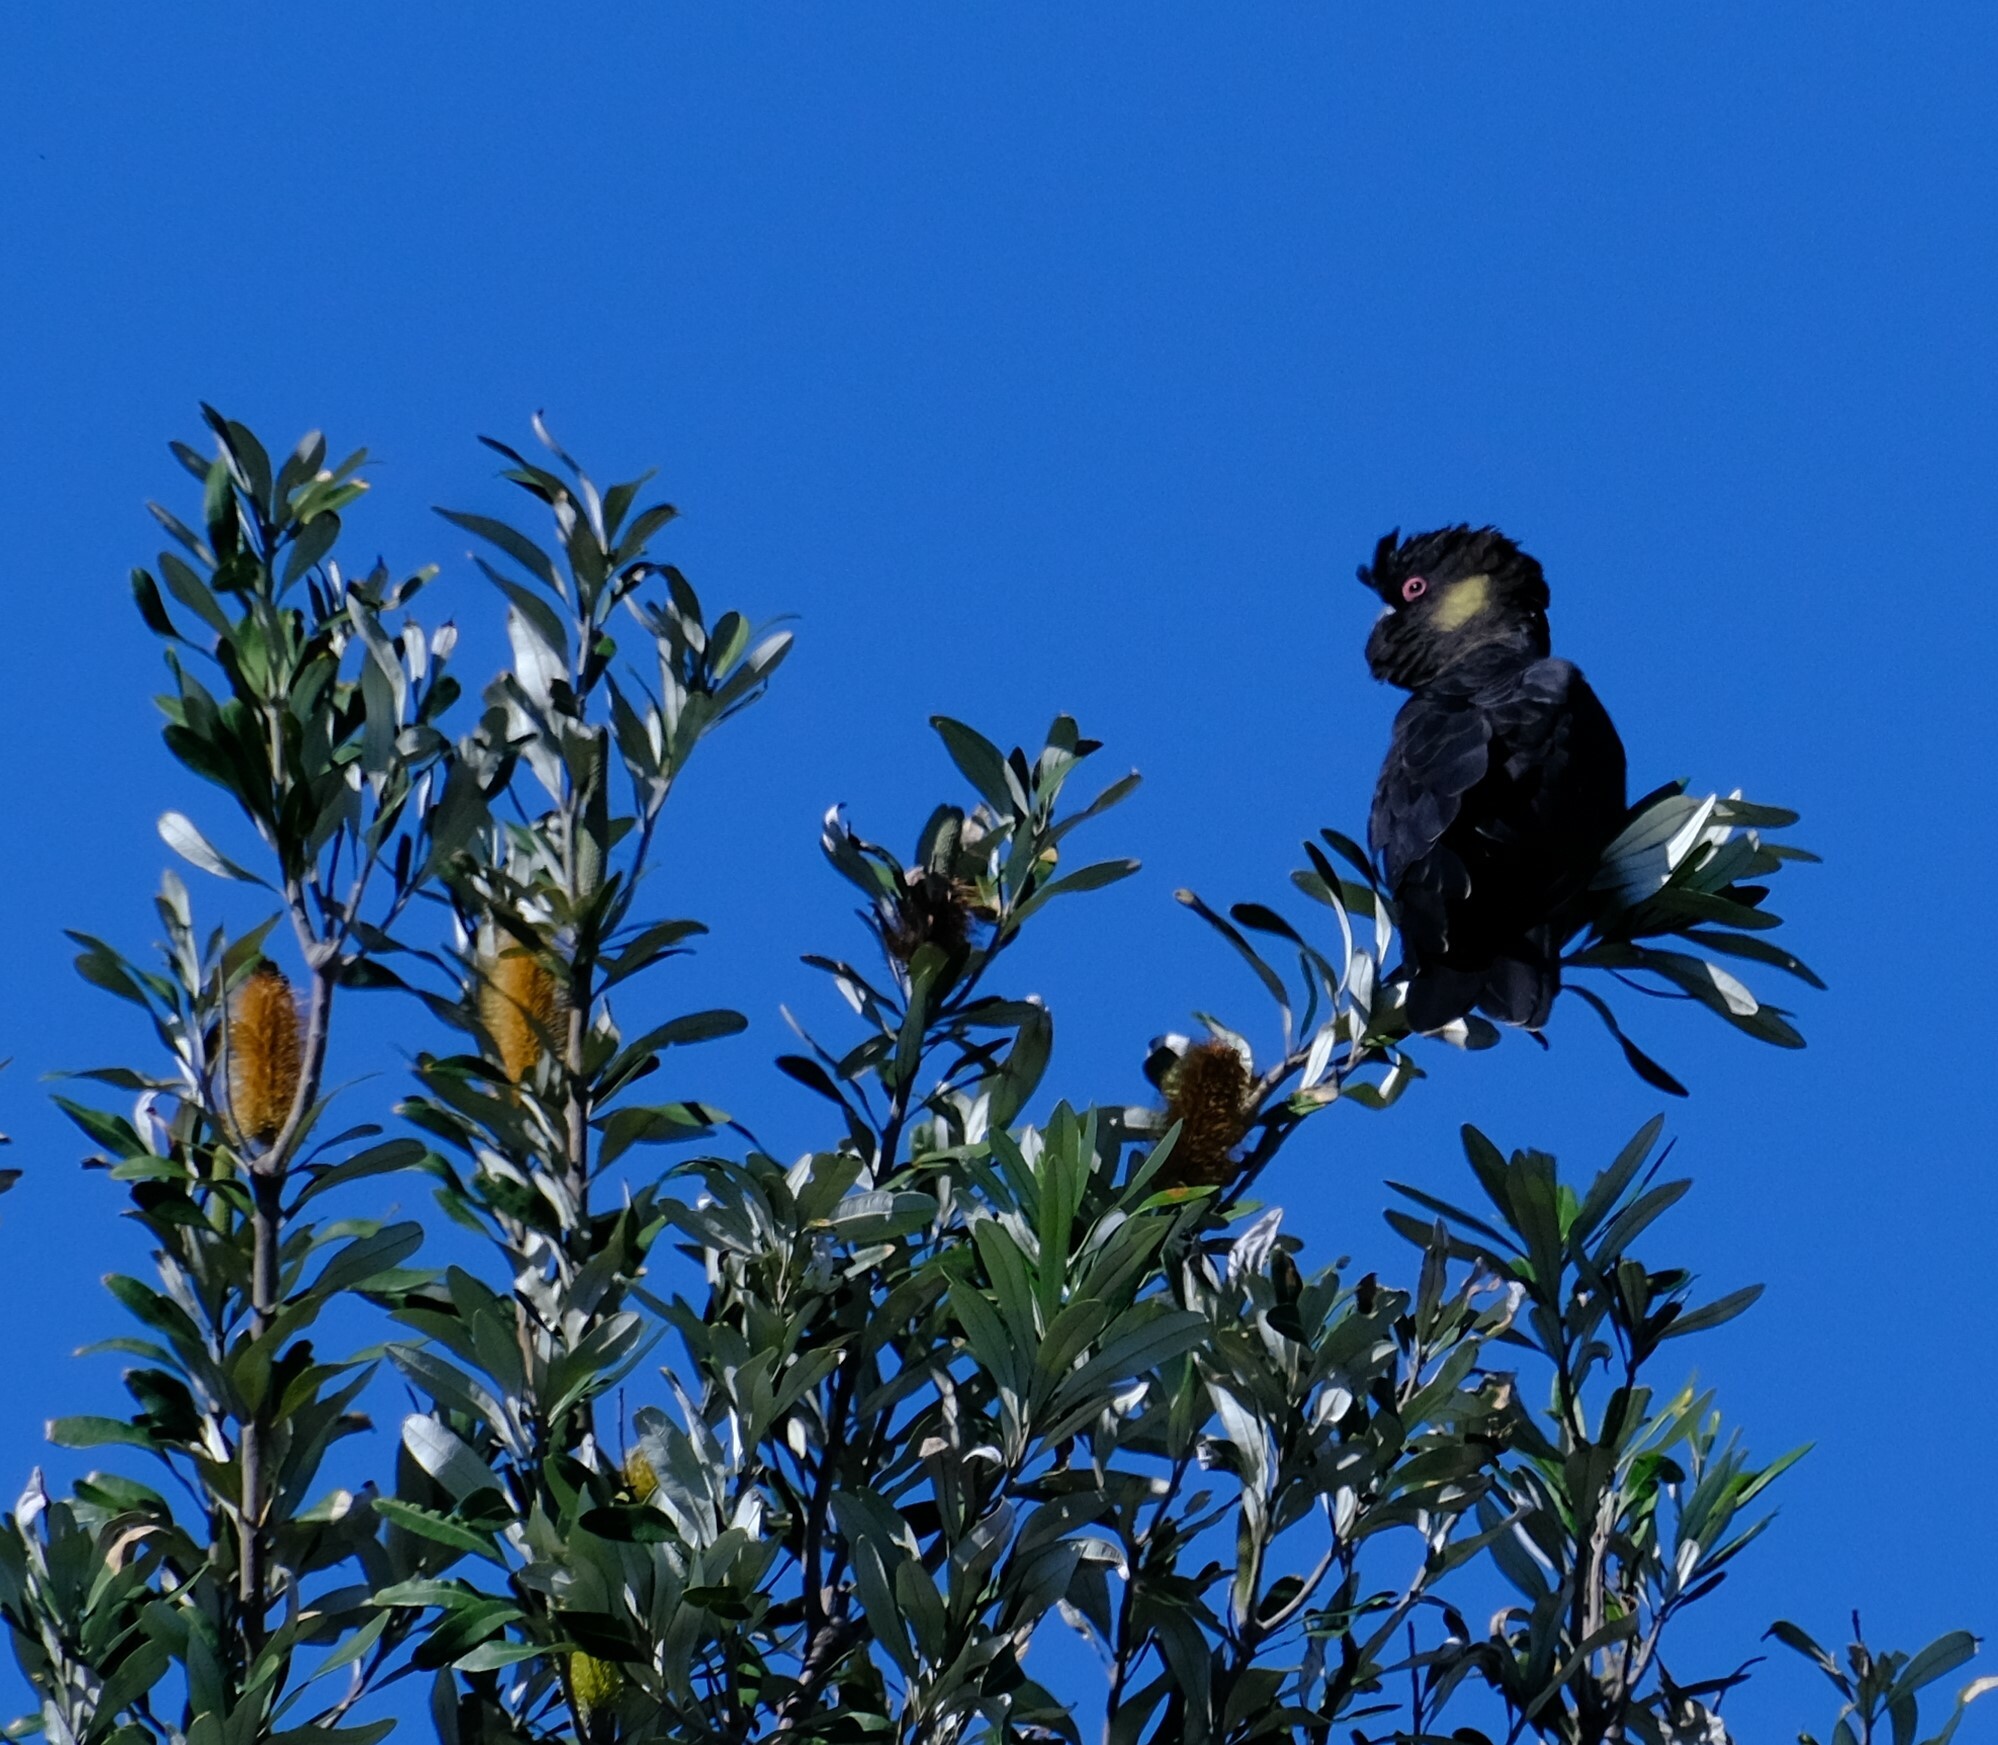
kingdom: Animalia
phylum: Chordata
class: Aves
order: Psittaciformes
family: Cacatuidae
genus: Zanda
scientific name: Zanda funerea
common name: Yellow-tailed black-cockatoo
